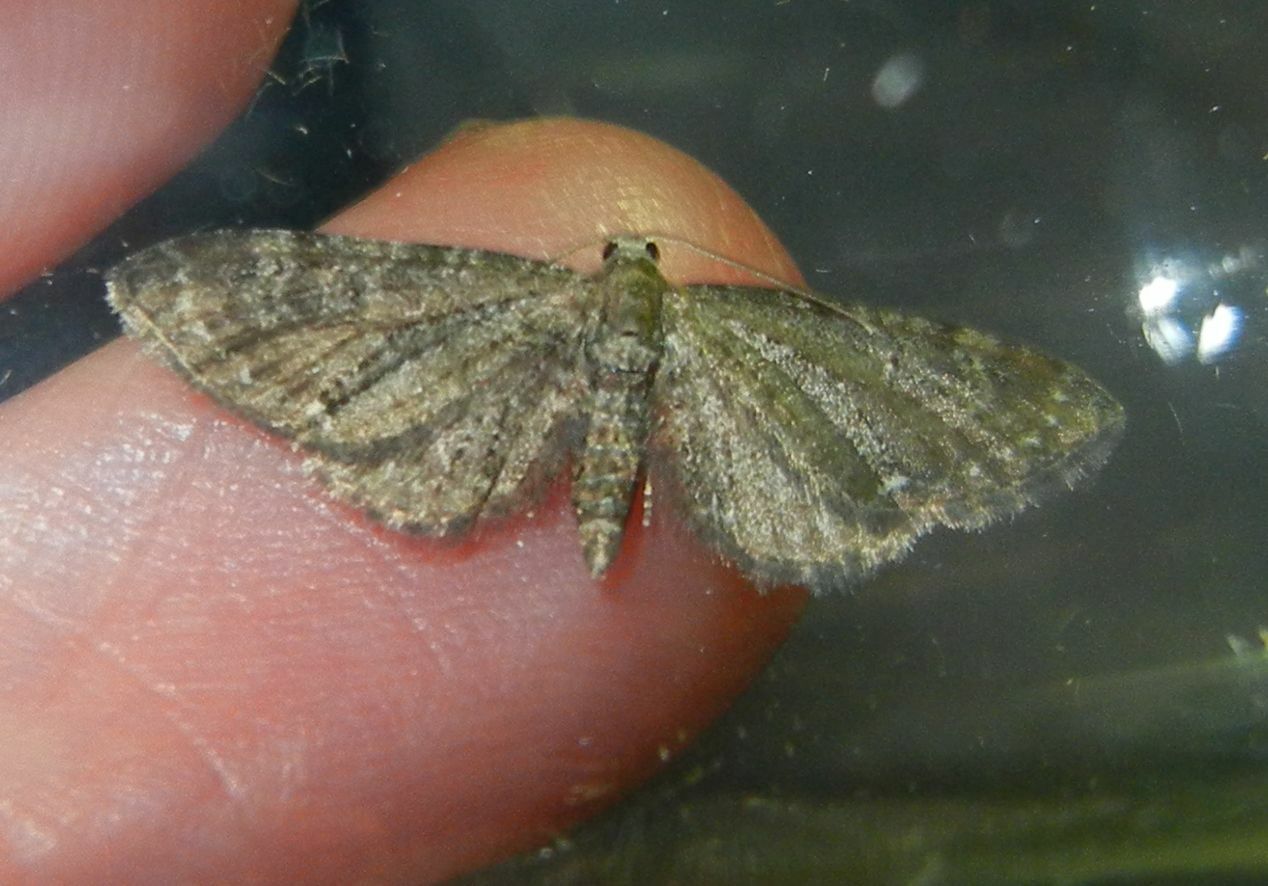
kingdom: Animalia
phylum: Arthropoda
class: Insecta
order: Lepidoptera
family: Geometridae
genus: Eupithecia
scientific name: Eupithecia vulgata
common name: Common pug
